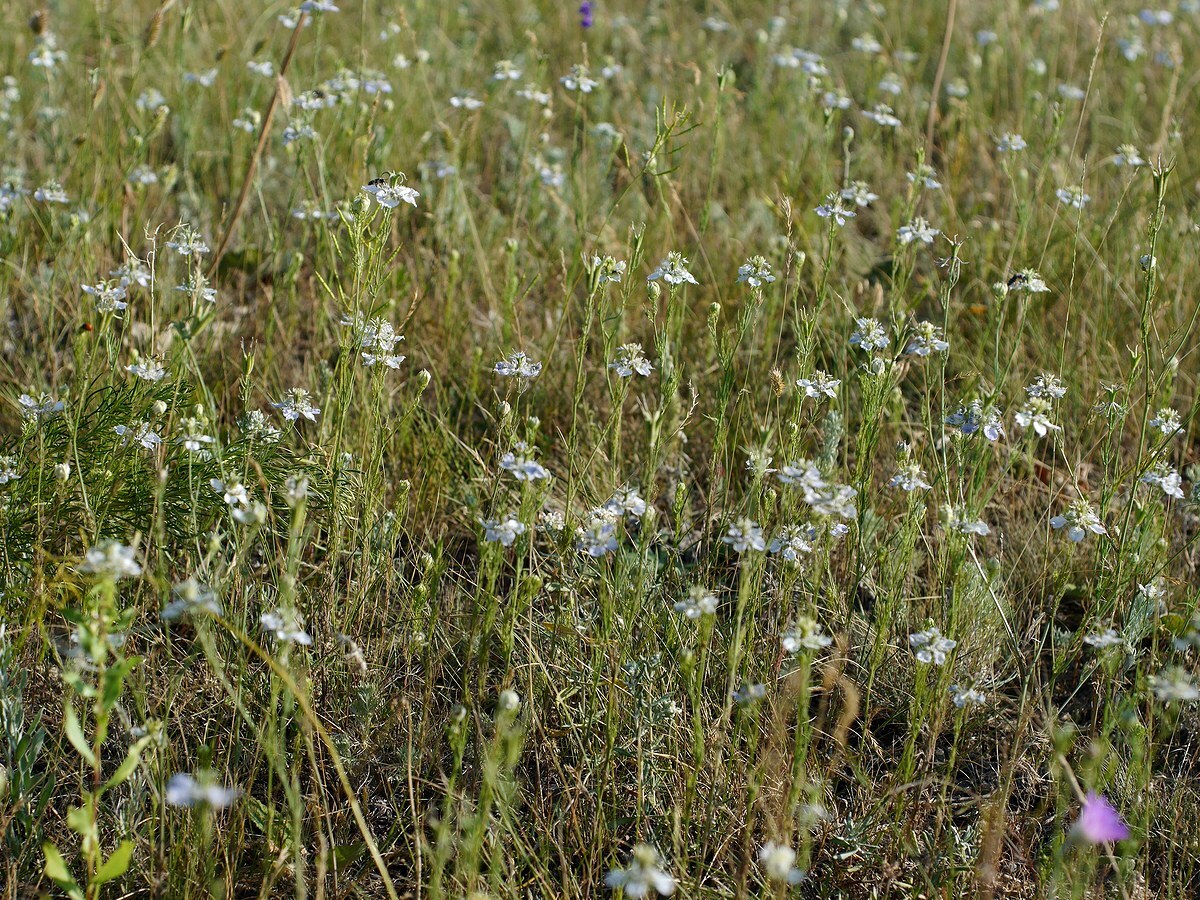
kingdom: Plantae
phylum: Tracheophyta
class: Magnoliopsida
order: Ranunculales
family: Ranunculaceae
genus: Nigella
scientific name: Nigella arvensis
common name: Wild fennel-flower
